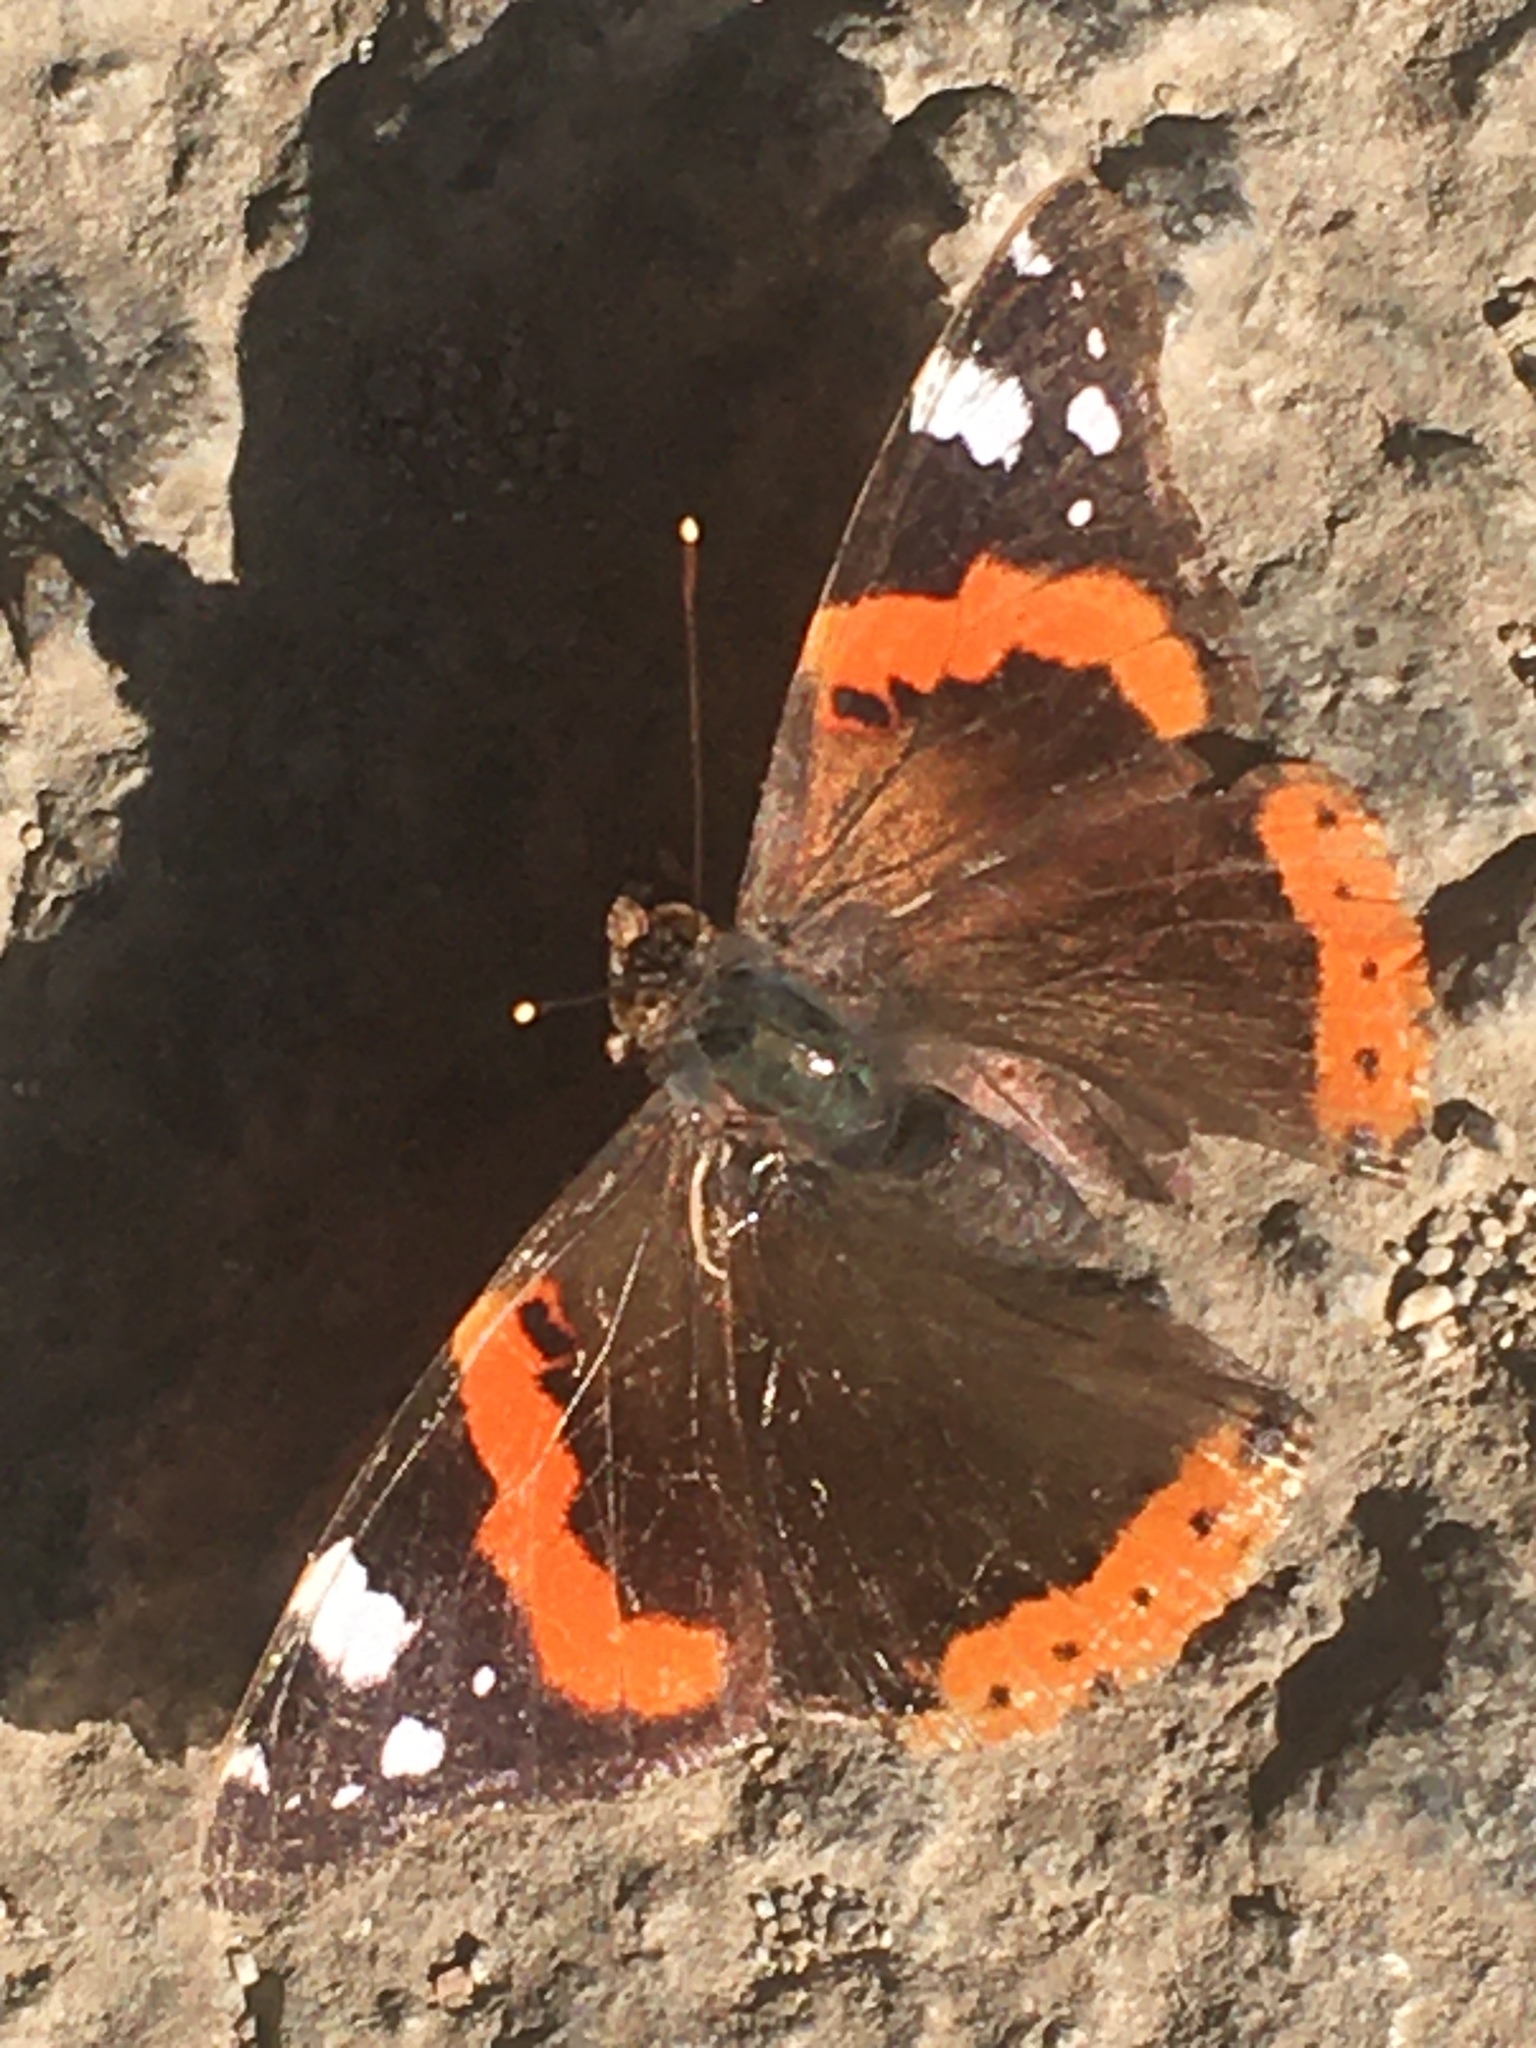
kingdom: Animalia
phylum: Arthropoda
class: Insecta
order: Lepidoptera
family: Nymphalidae
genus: Vanessa
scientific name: Vanessa atalanta
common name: Red admiral
